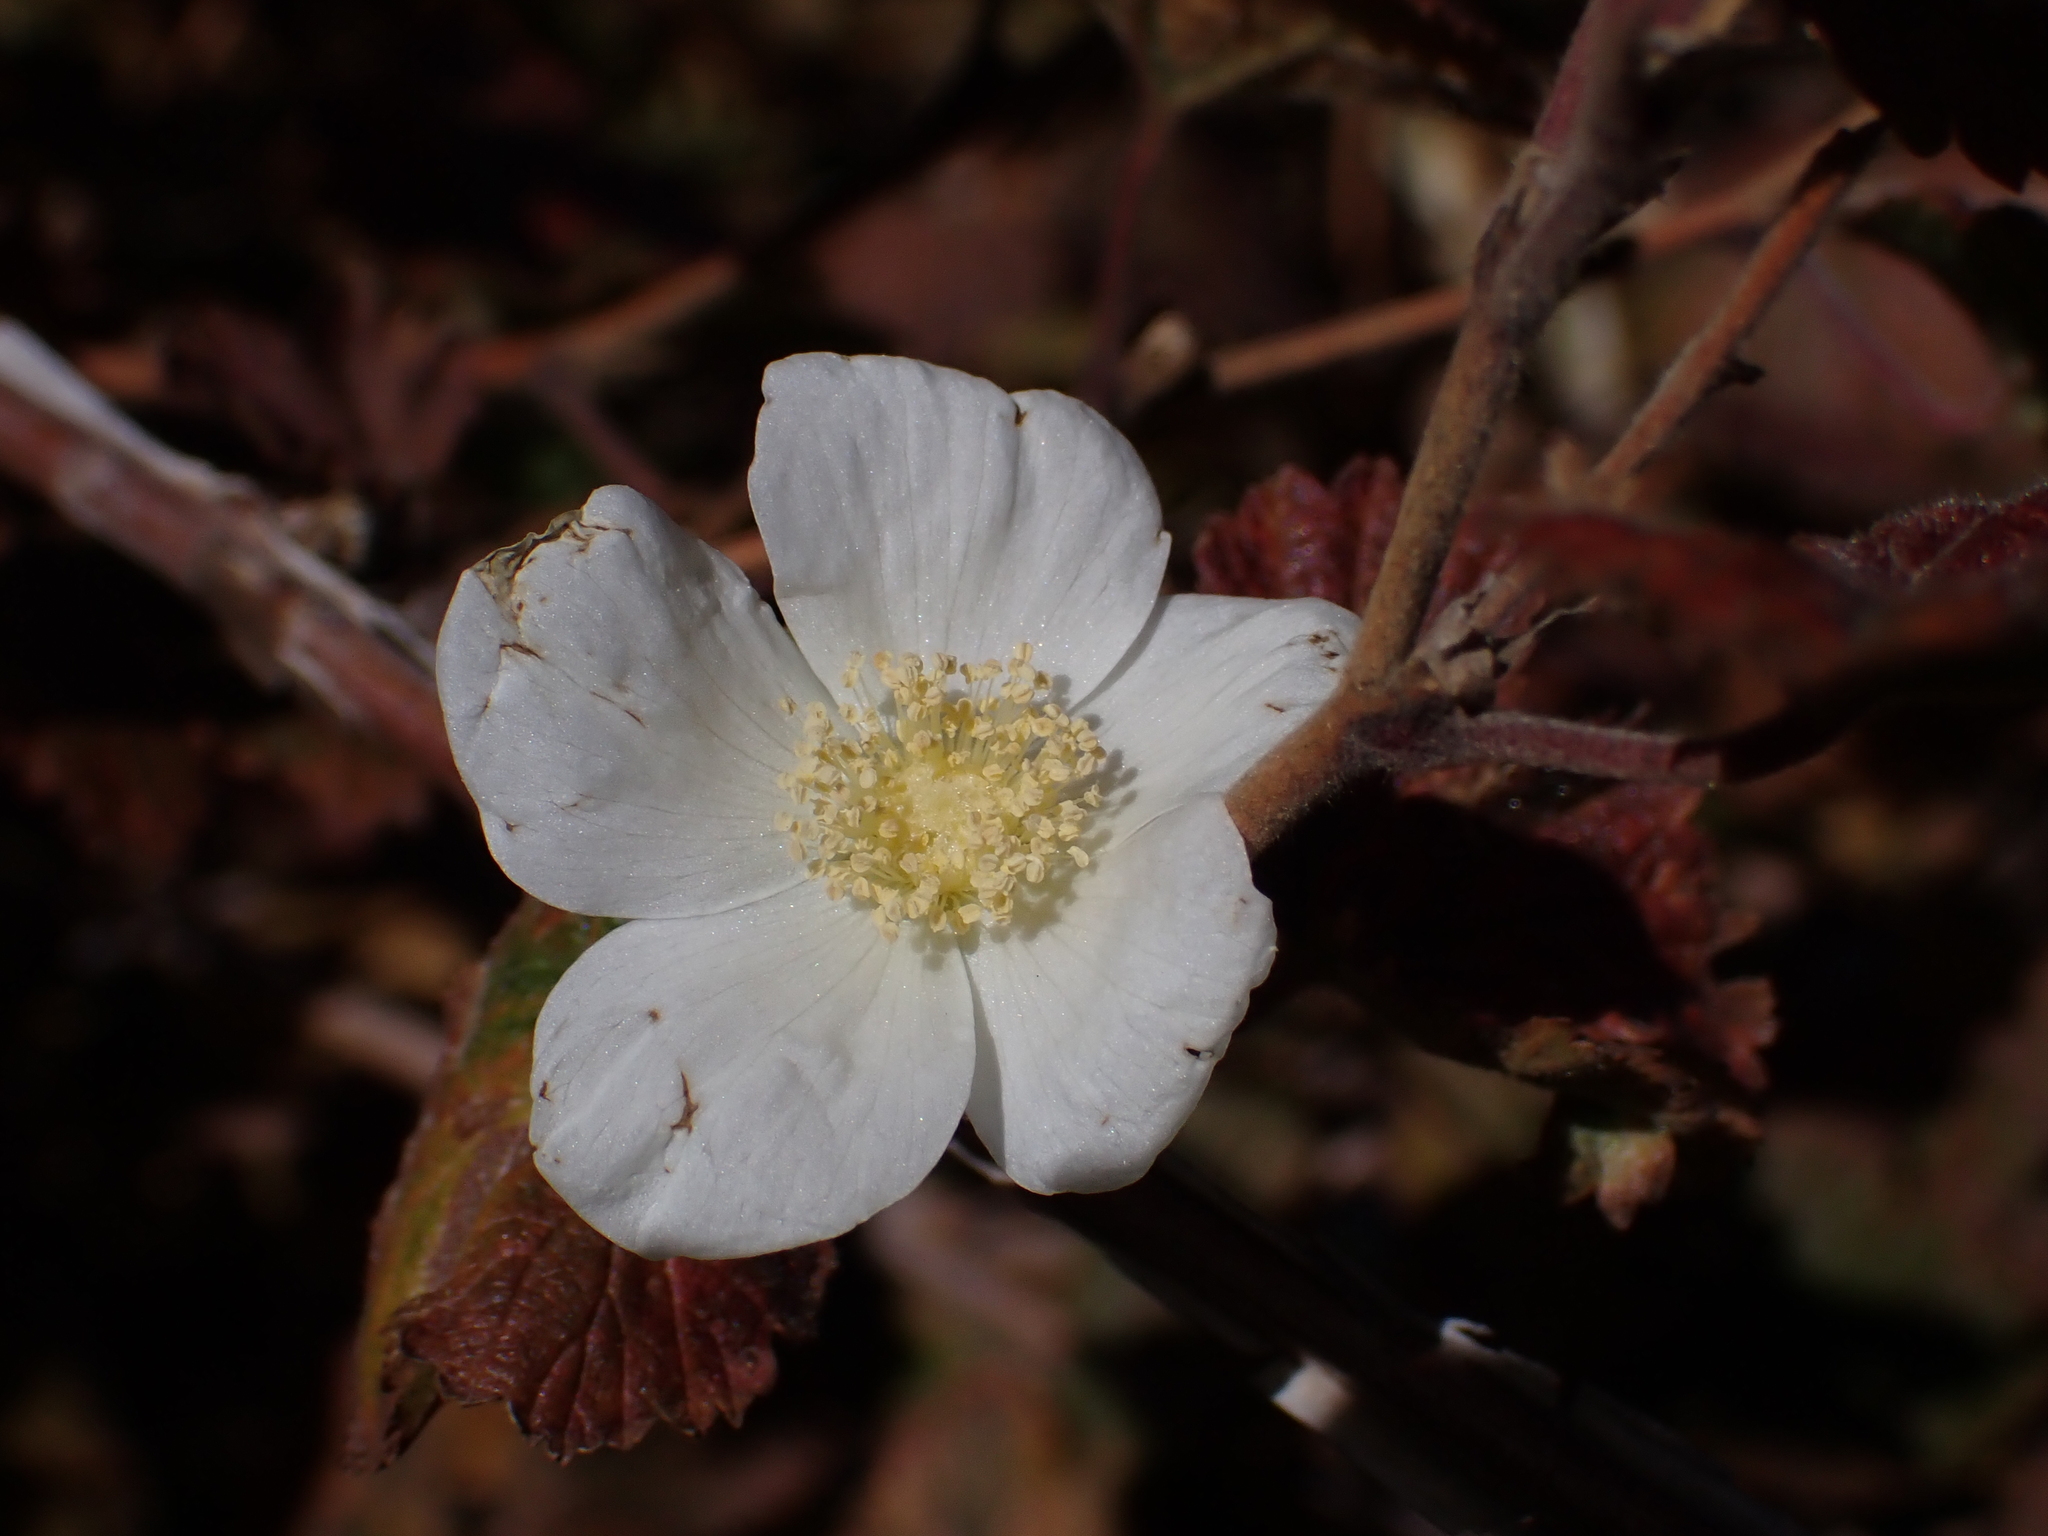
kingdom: Plantae
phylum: Tracheophyta
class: Magnoliopsida
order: Rosales
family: Rosaceae
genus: Rubus
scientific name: Rubus neomexicanus
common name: New mexico raspberry
